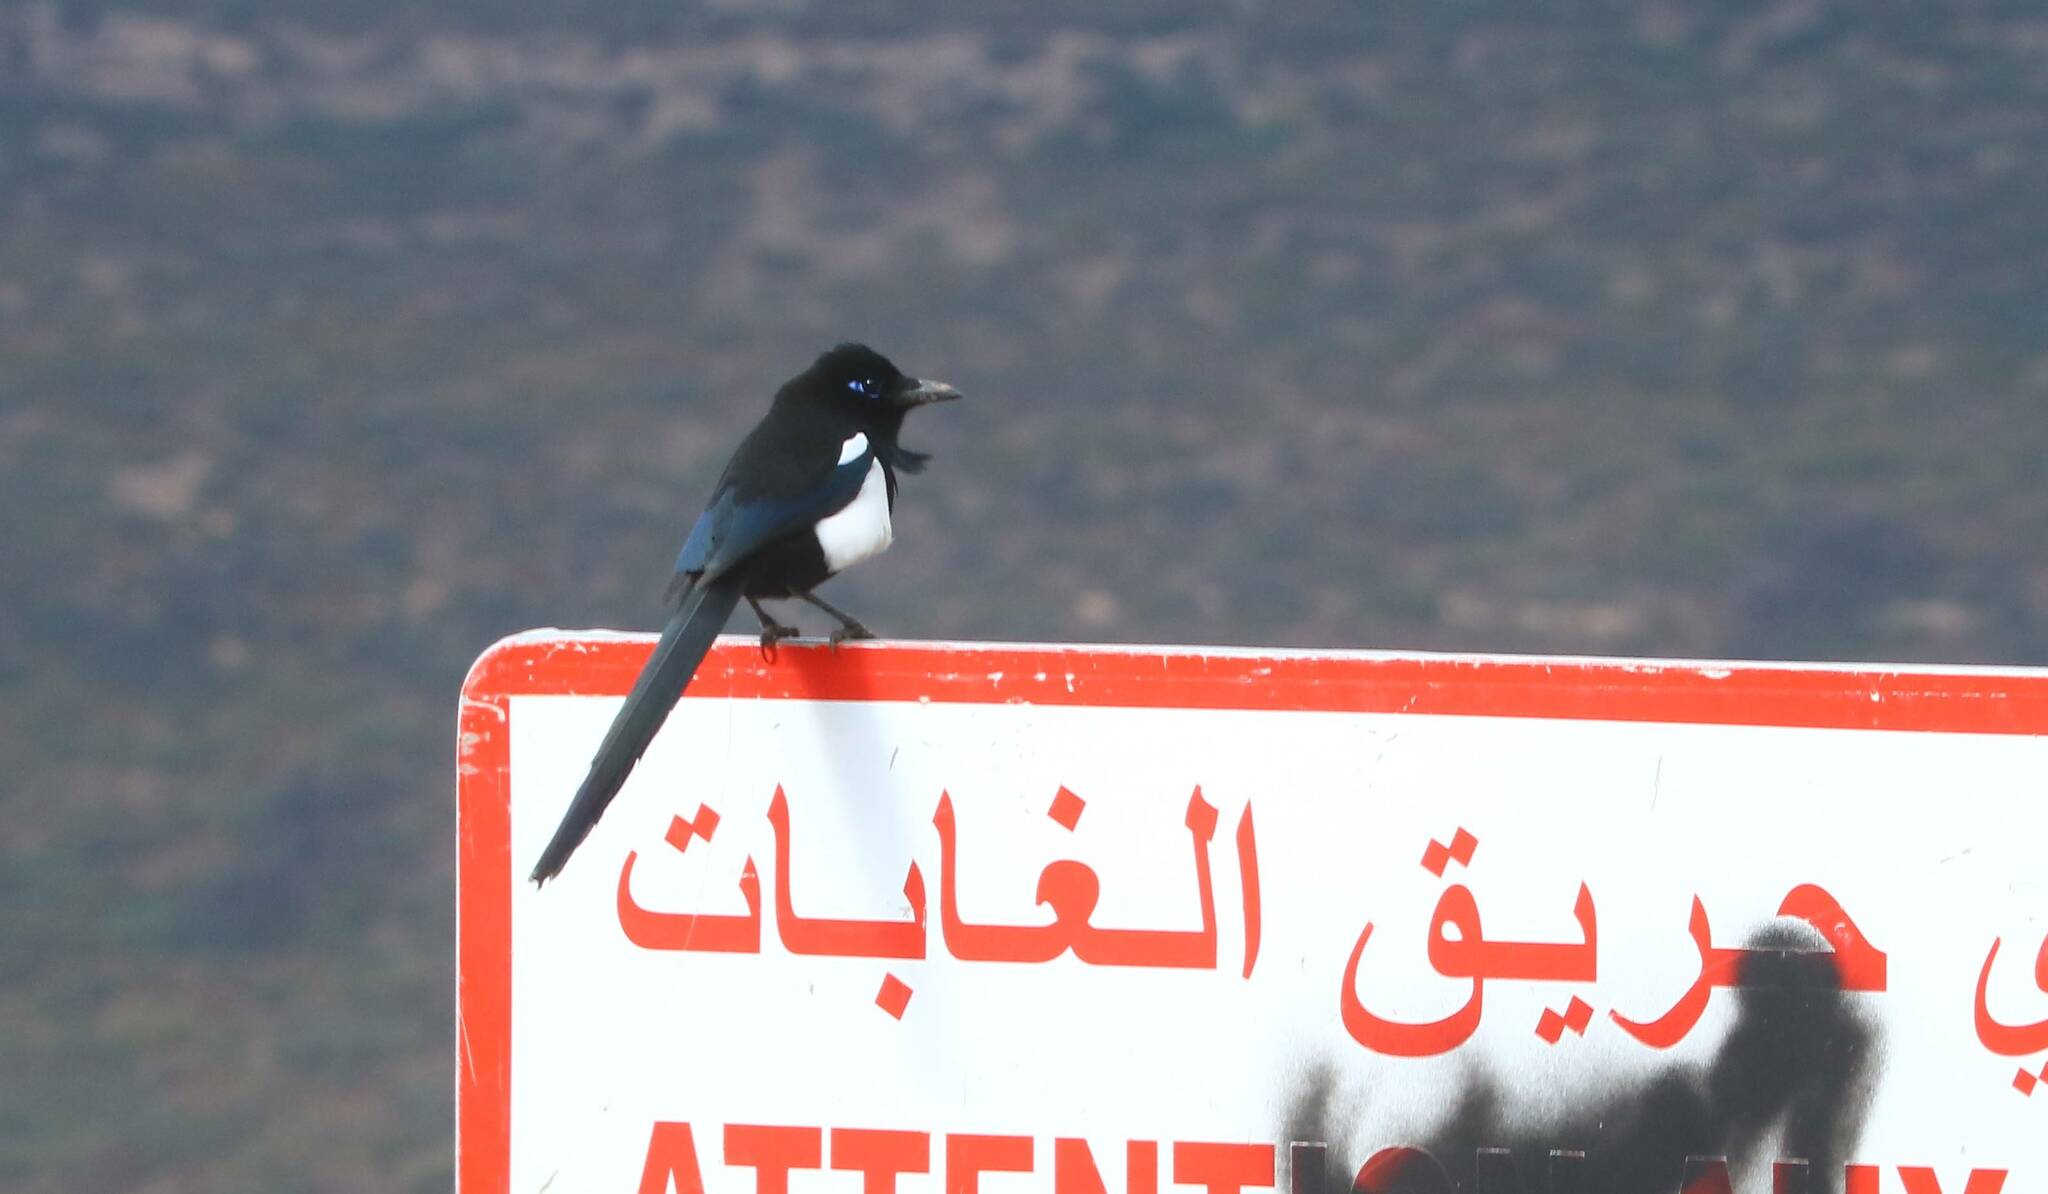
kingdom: Animalia
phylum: Chordata
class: Aves
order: Passeriformes
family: Corvidae
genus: Pica
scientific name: Pica mauritanica
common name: Maghreb magpie
